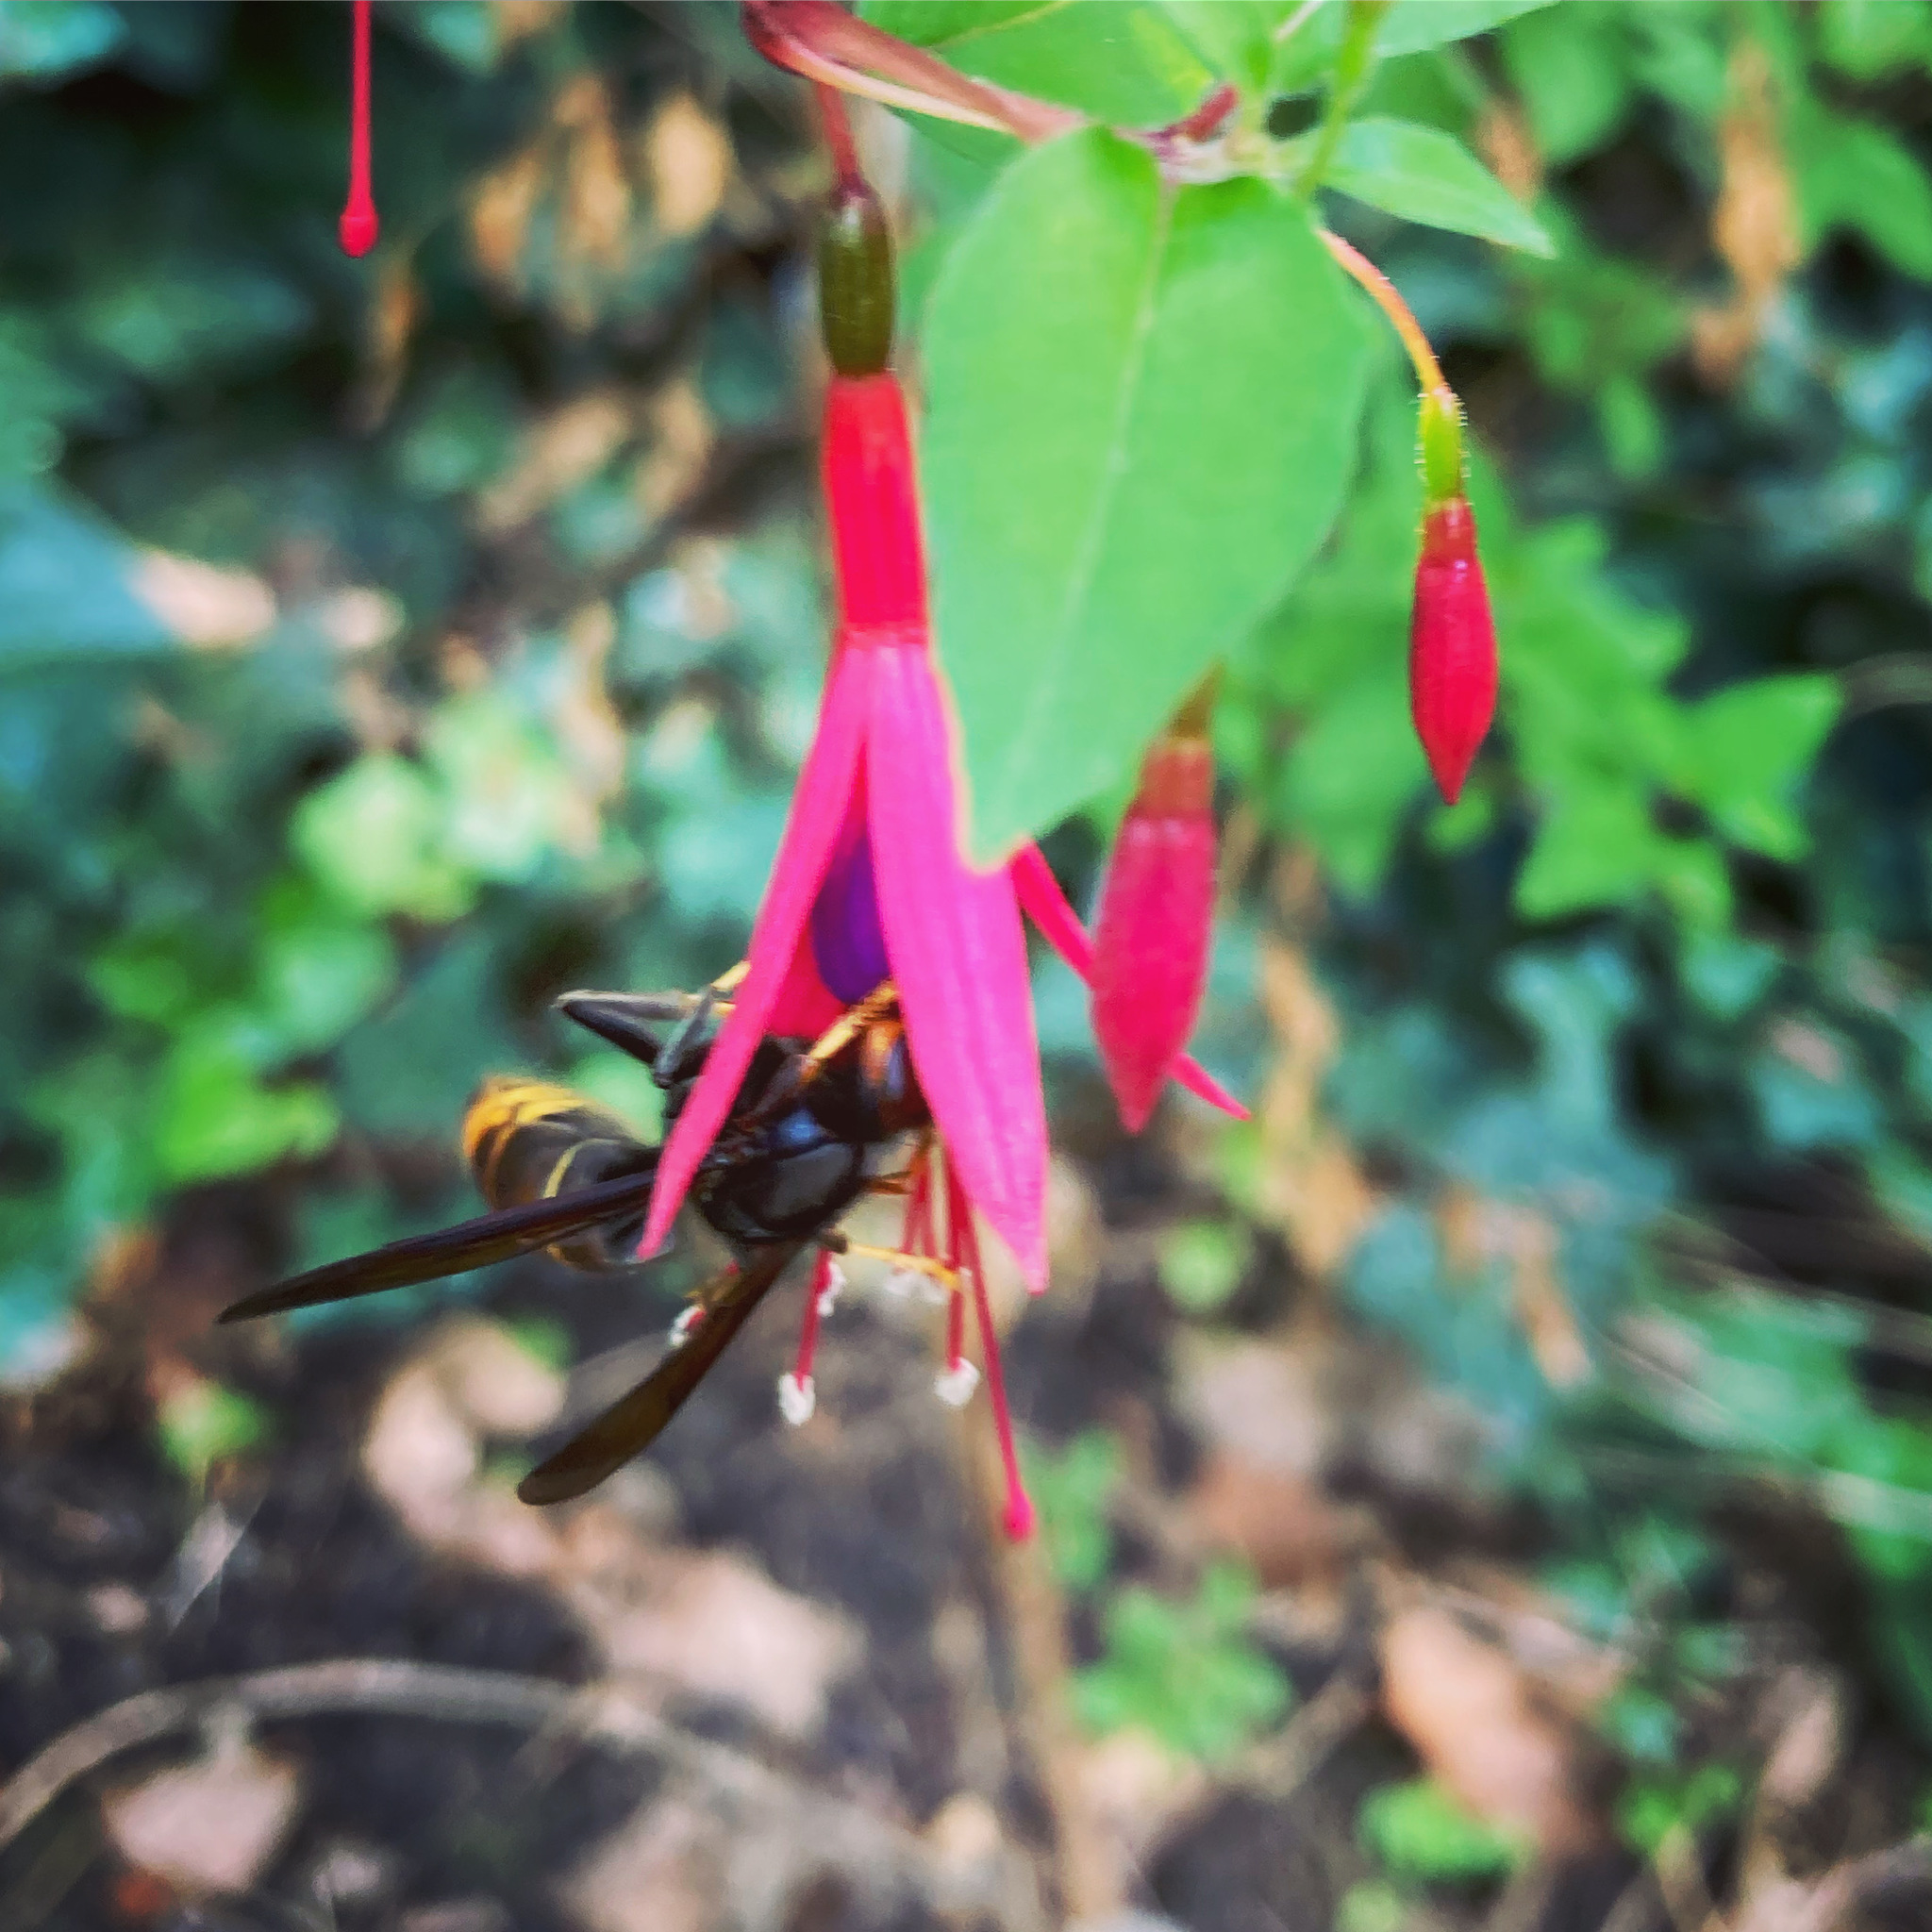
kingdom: Animalia
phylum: Arthropoda
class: Insecta
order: Hymenoptera
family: Vespidae
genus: Vespa
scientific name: Vespa velutina
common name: Asian hornet
